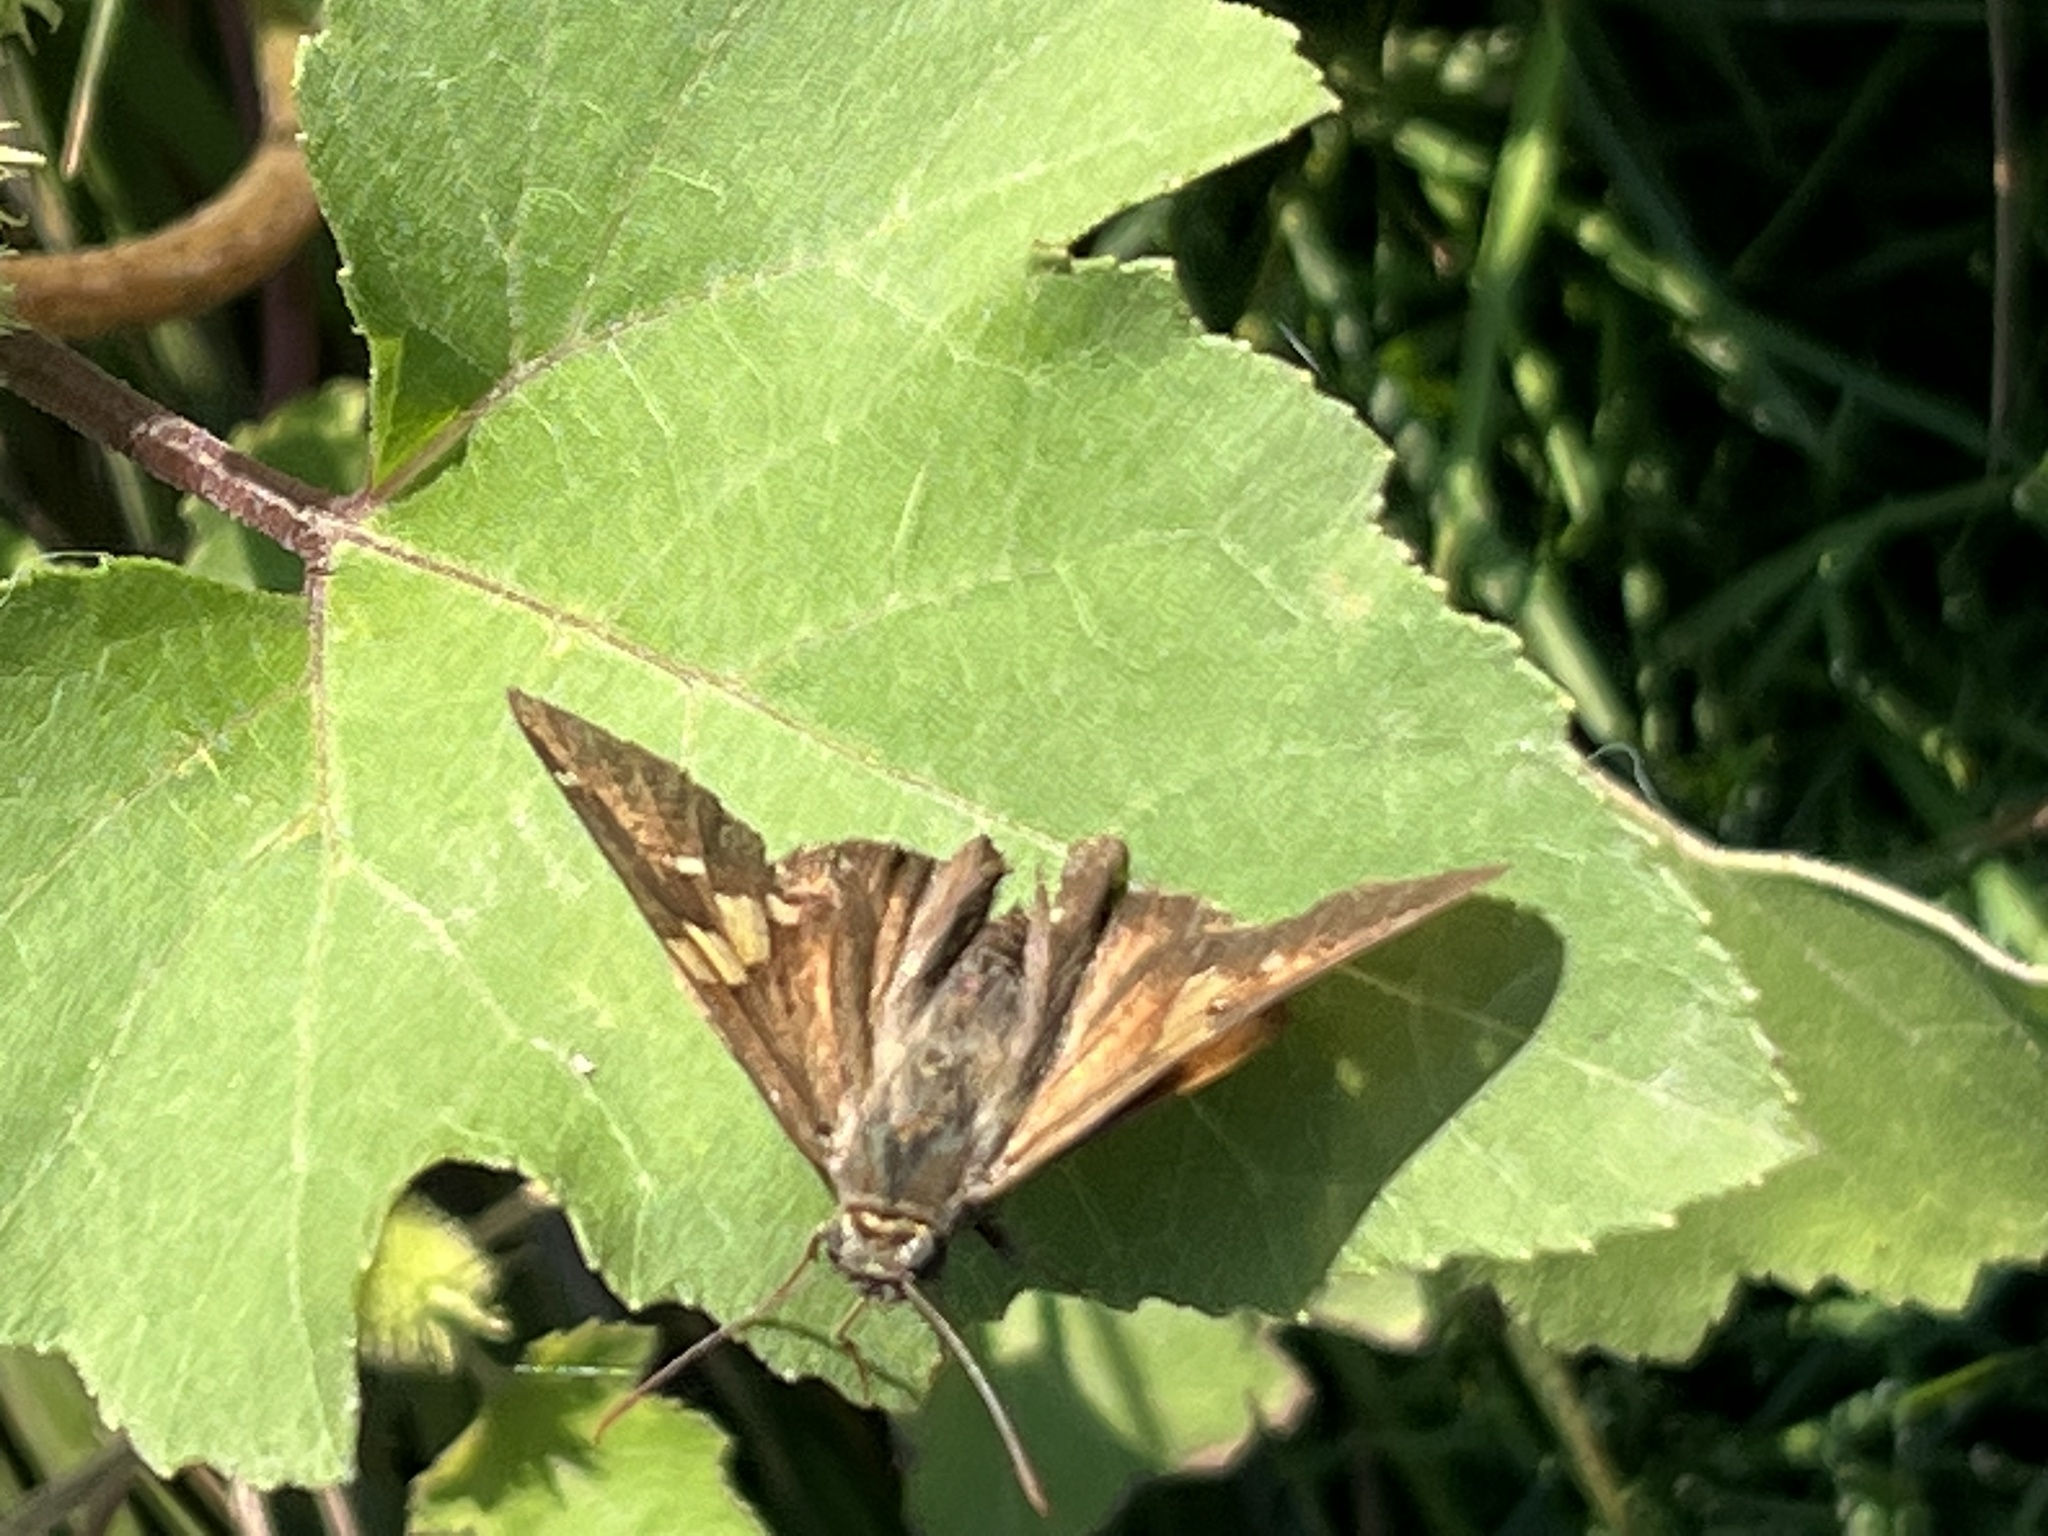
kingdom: Animalia
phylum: Arthropoda
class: Insecta
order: Lepidoptera
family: Hesperiidae
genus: Epargyreus
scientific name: Epargyreus clarus
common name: Silver-spotted skipper
